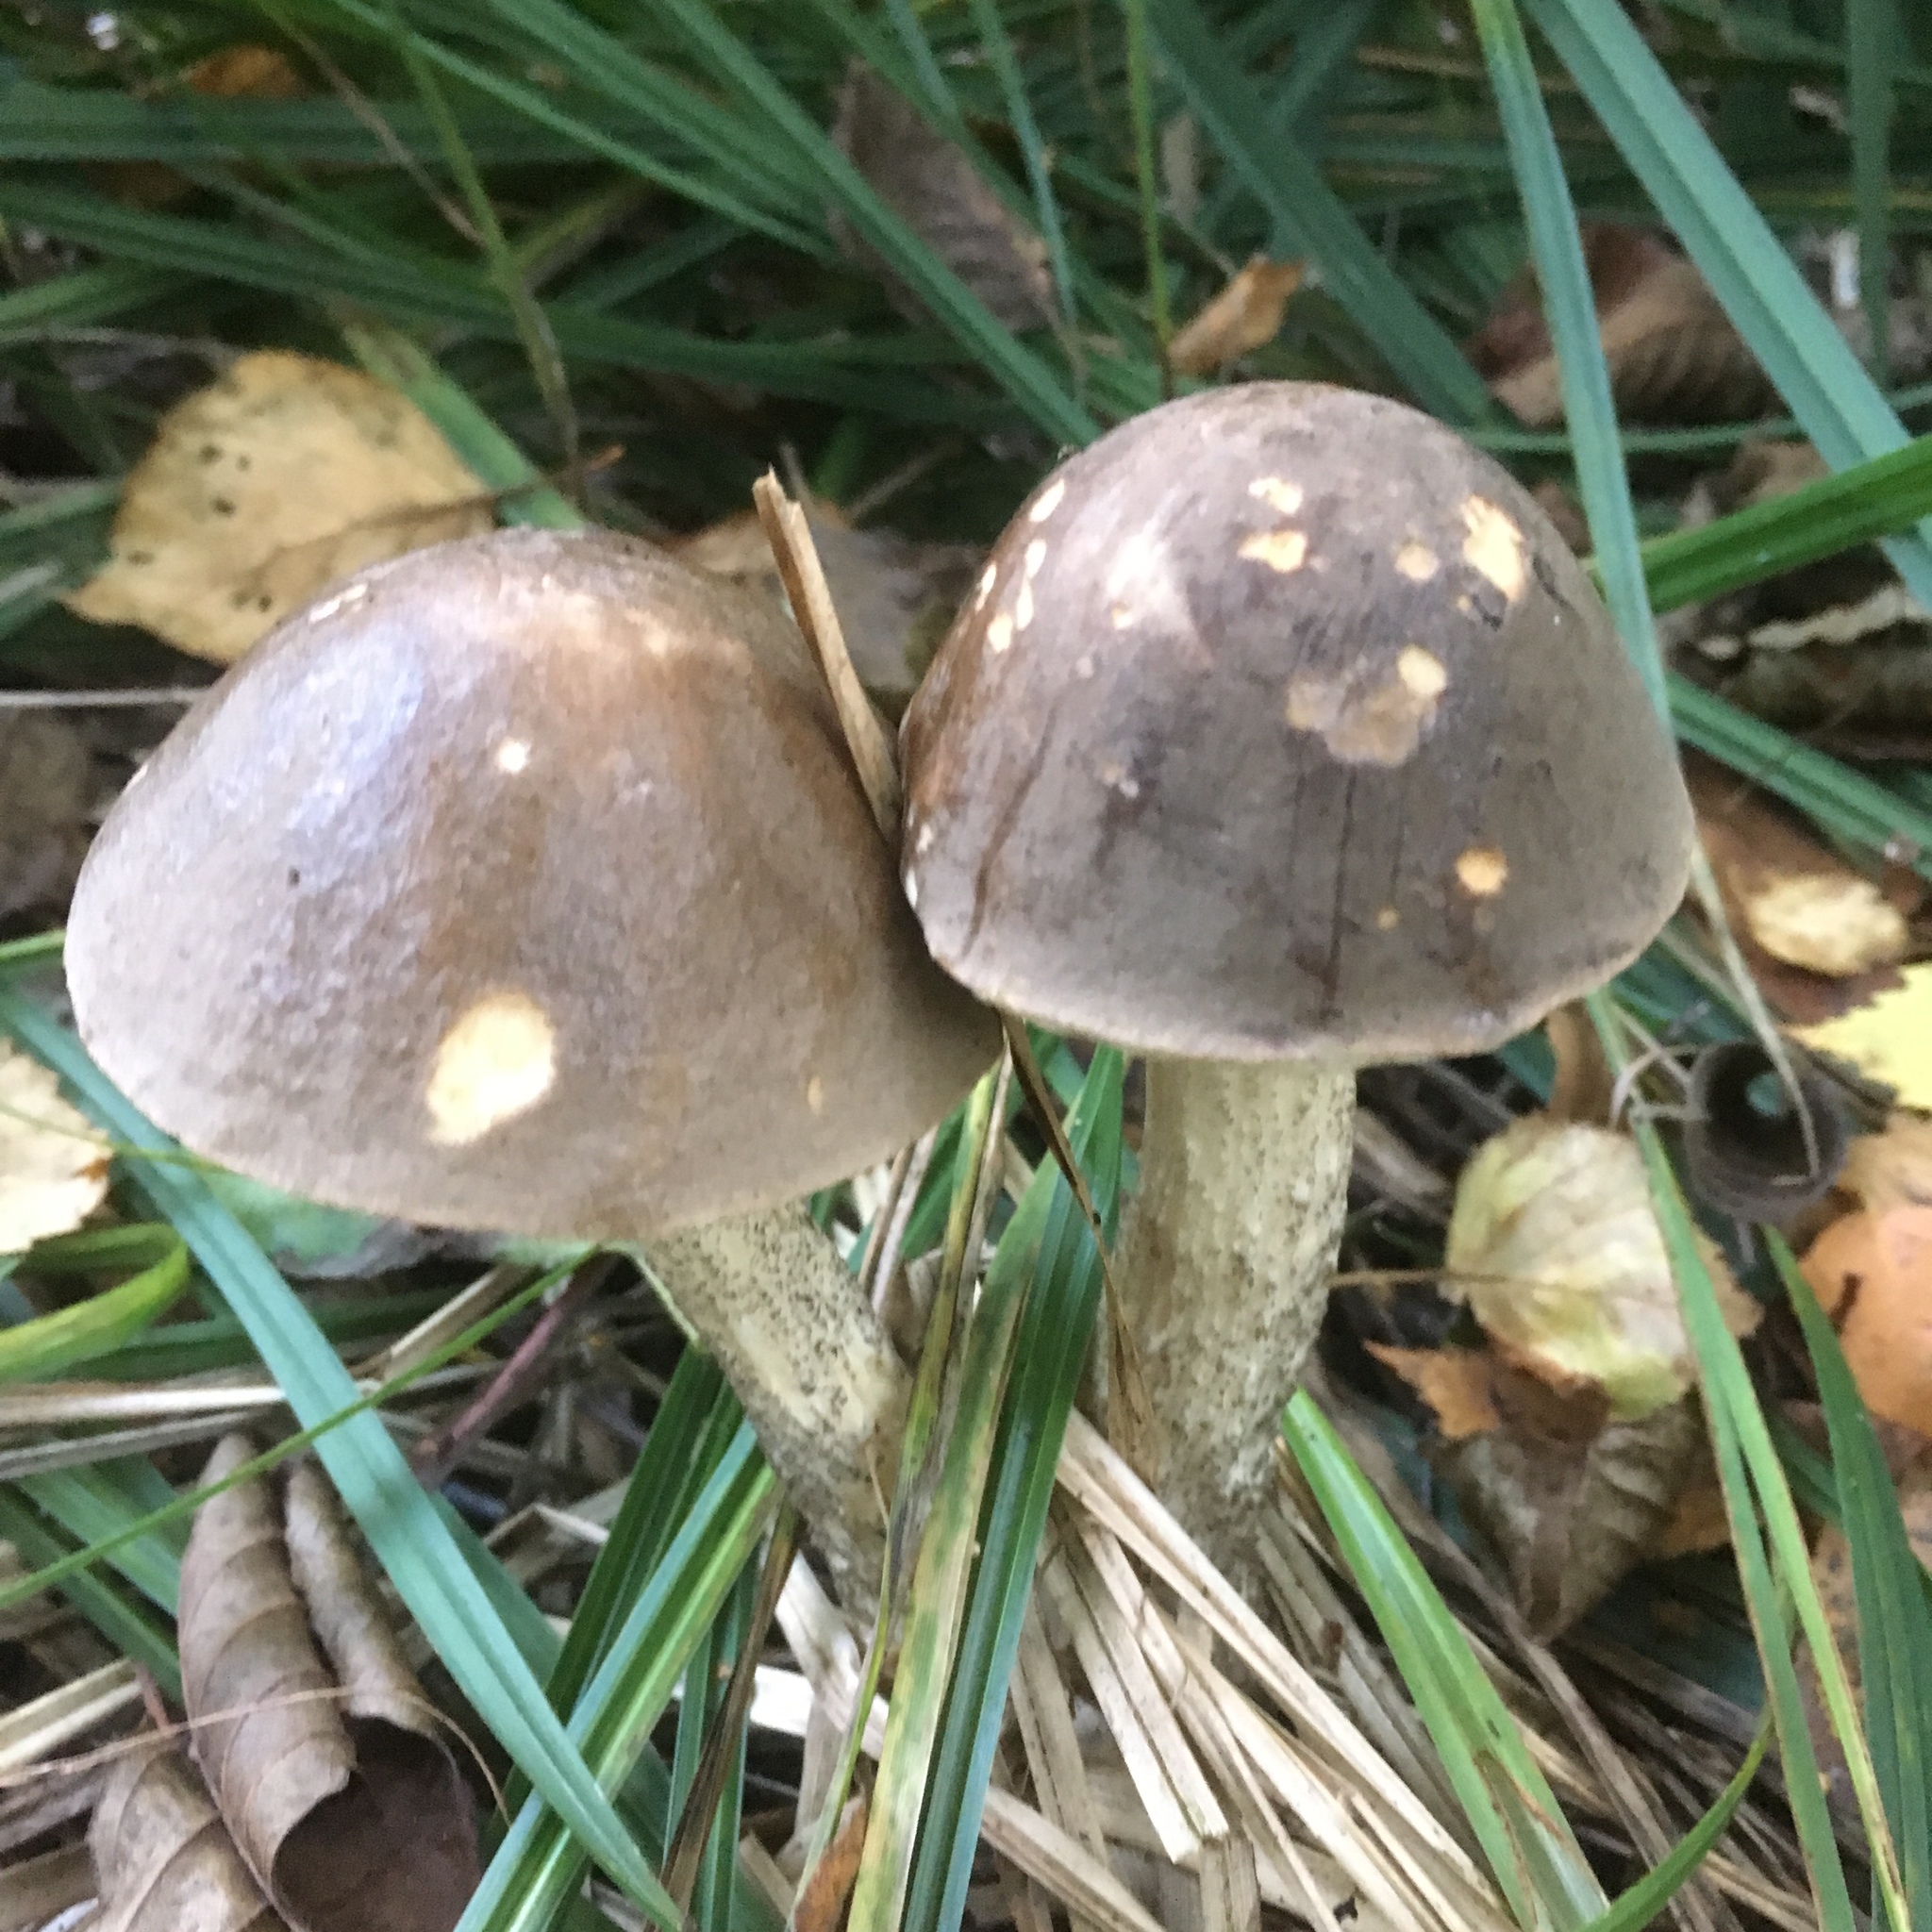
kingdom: Fungi
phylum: Basidiomycota
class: Agaricomycetes
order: Boletales
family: Boletaceae
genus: Leccinum
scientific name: Leccinum scabrum
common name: Blushing bolete
